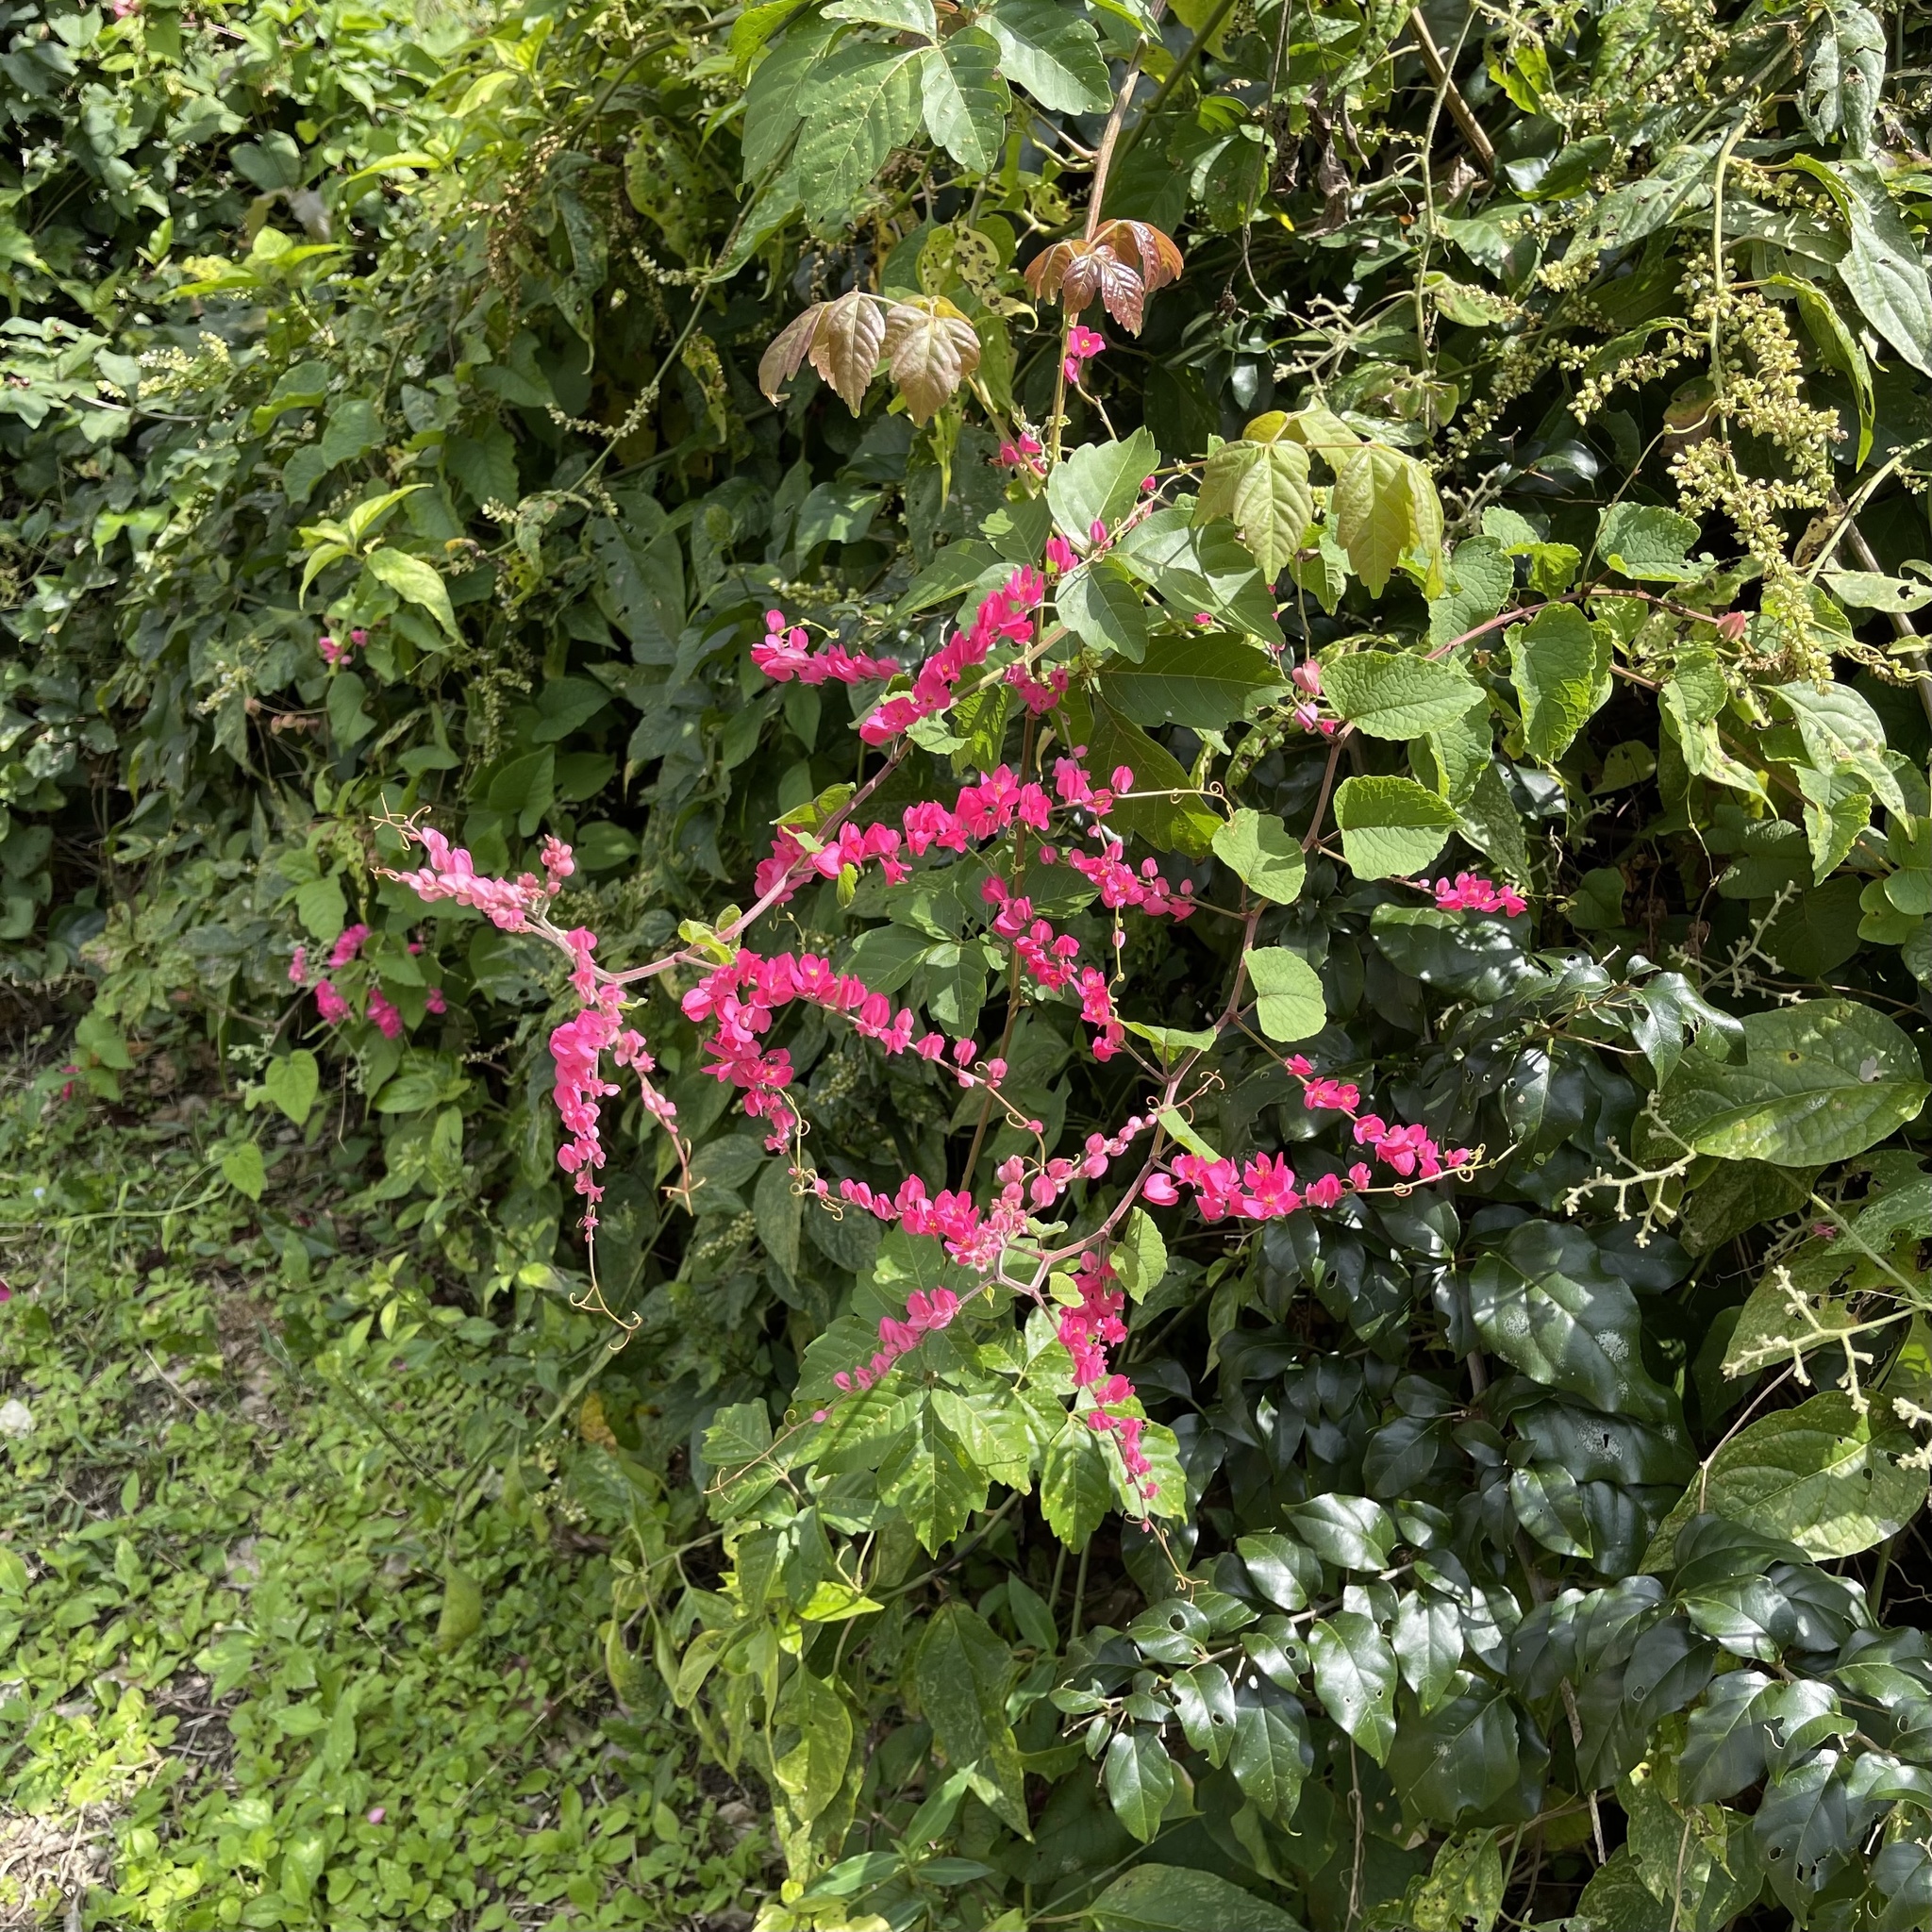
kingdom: Plantae
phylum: Tracheophyta
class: Magnoliopsida
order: Caryophyllales
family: Polygonaceae
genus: Antigonon
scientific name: Antigonon leptopus
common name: Coral vine
